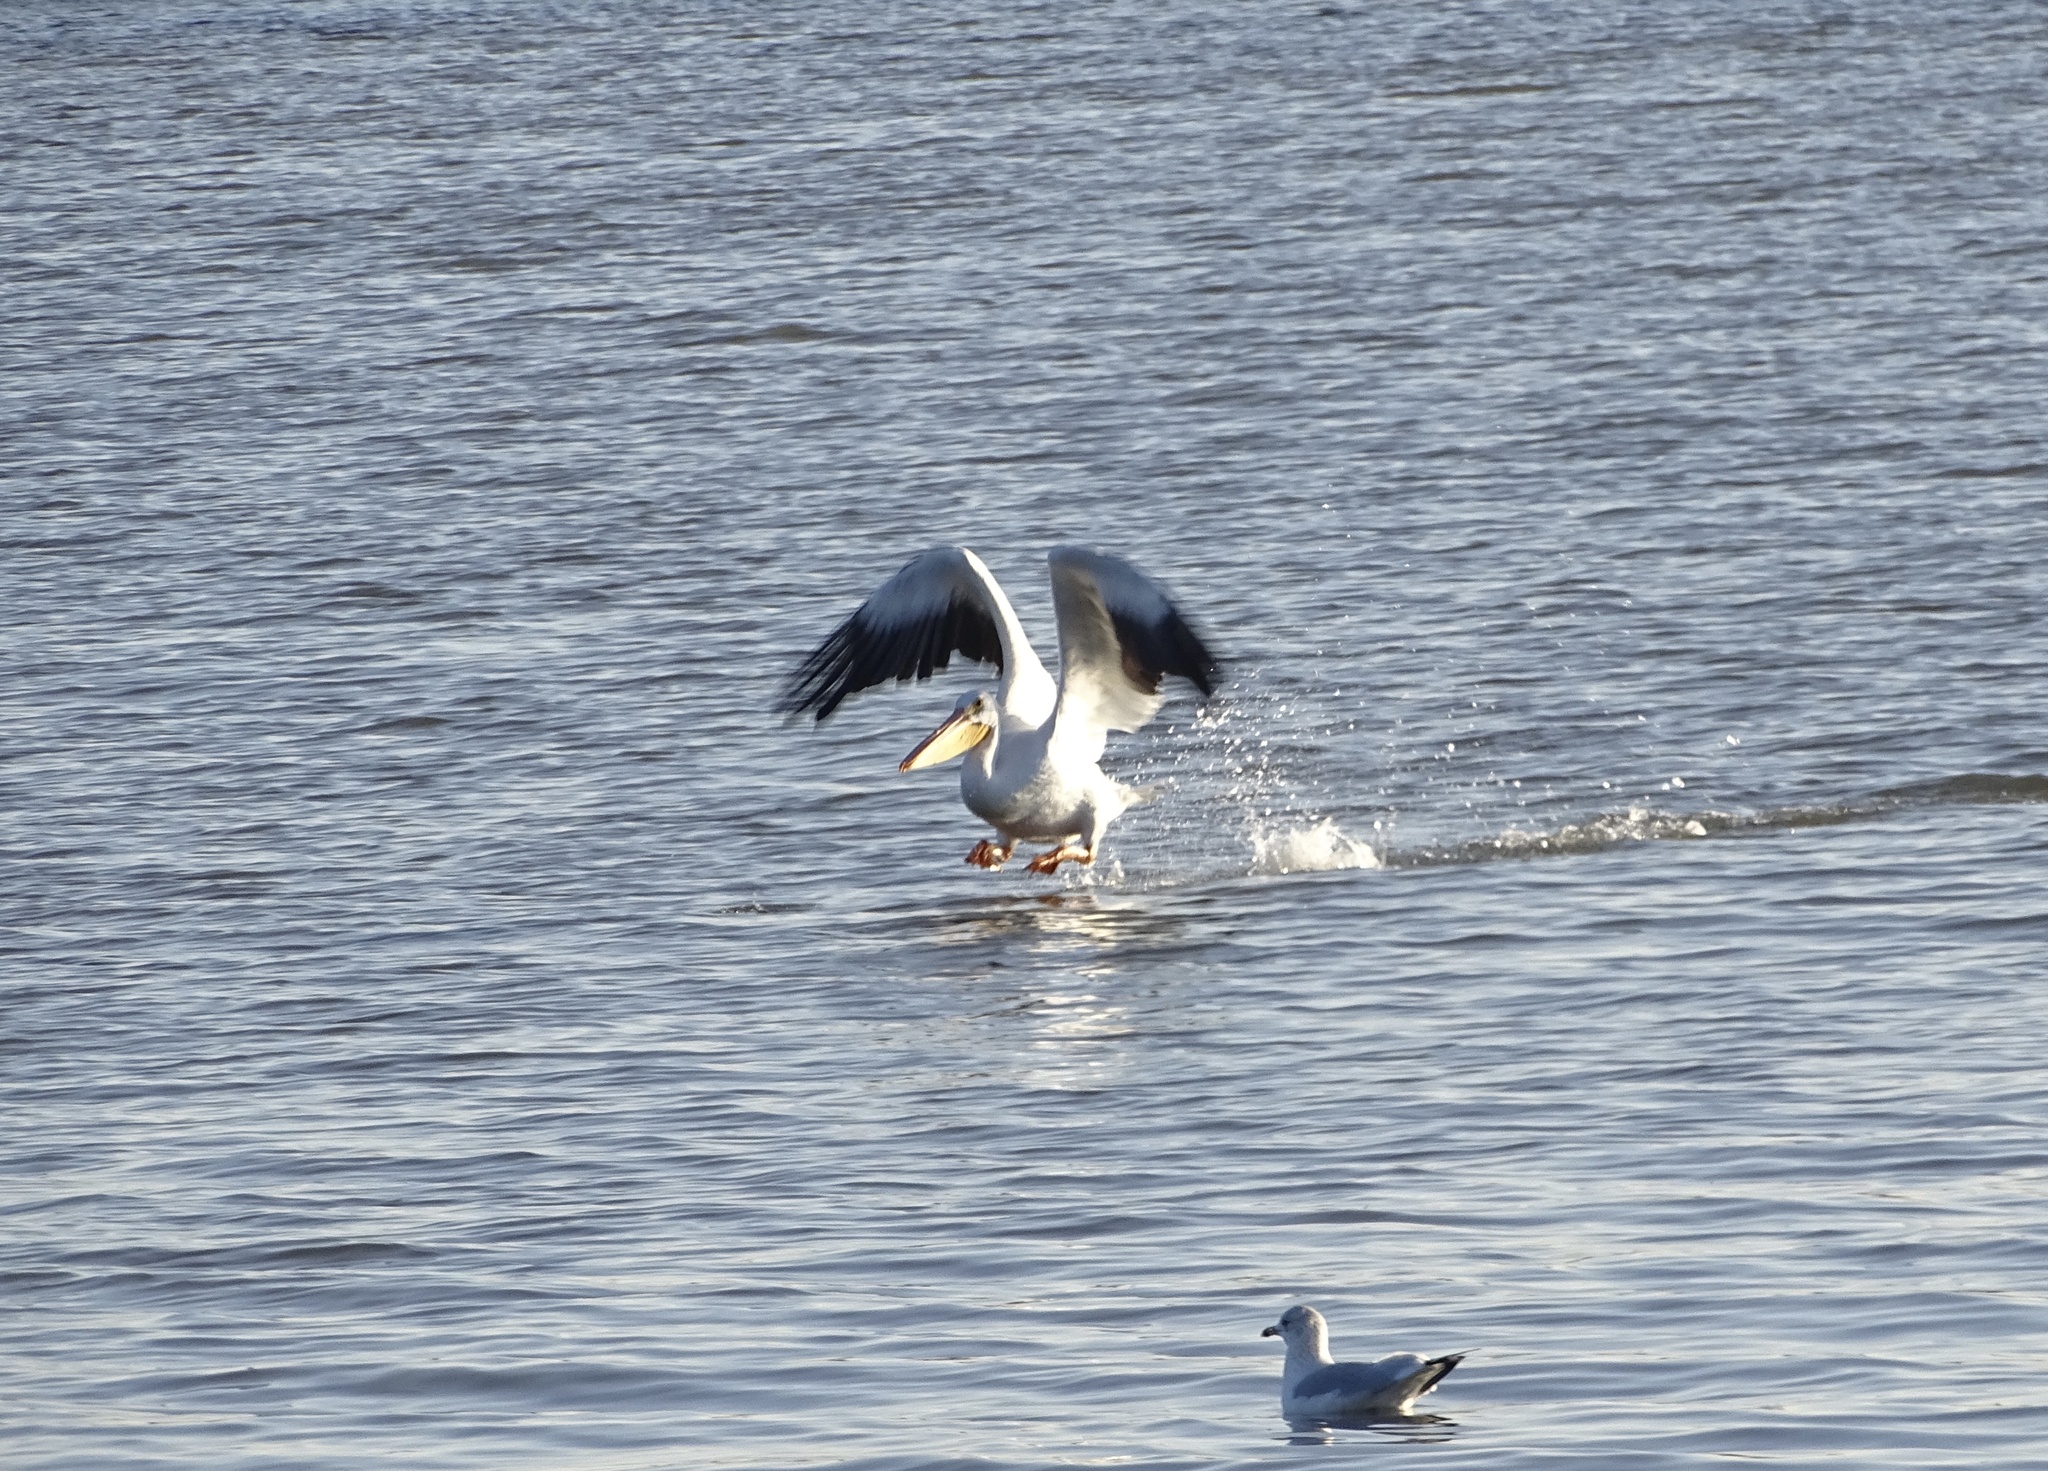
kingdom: Animalia
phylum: Chordata
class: Aves
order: Pelecaniformes
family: Pelecanidae
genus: Pelecanus
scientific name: Pelecanus erythrorhynchos
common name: American white pelican
